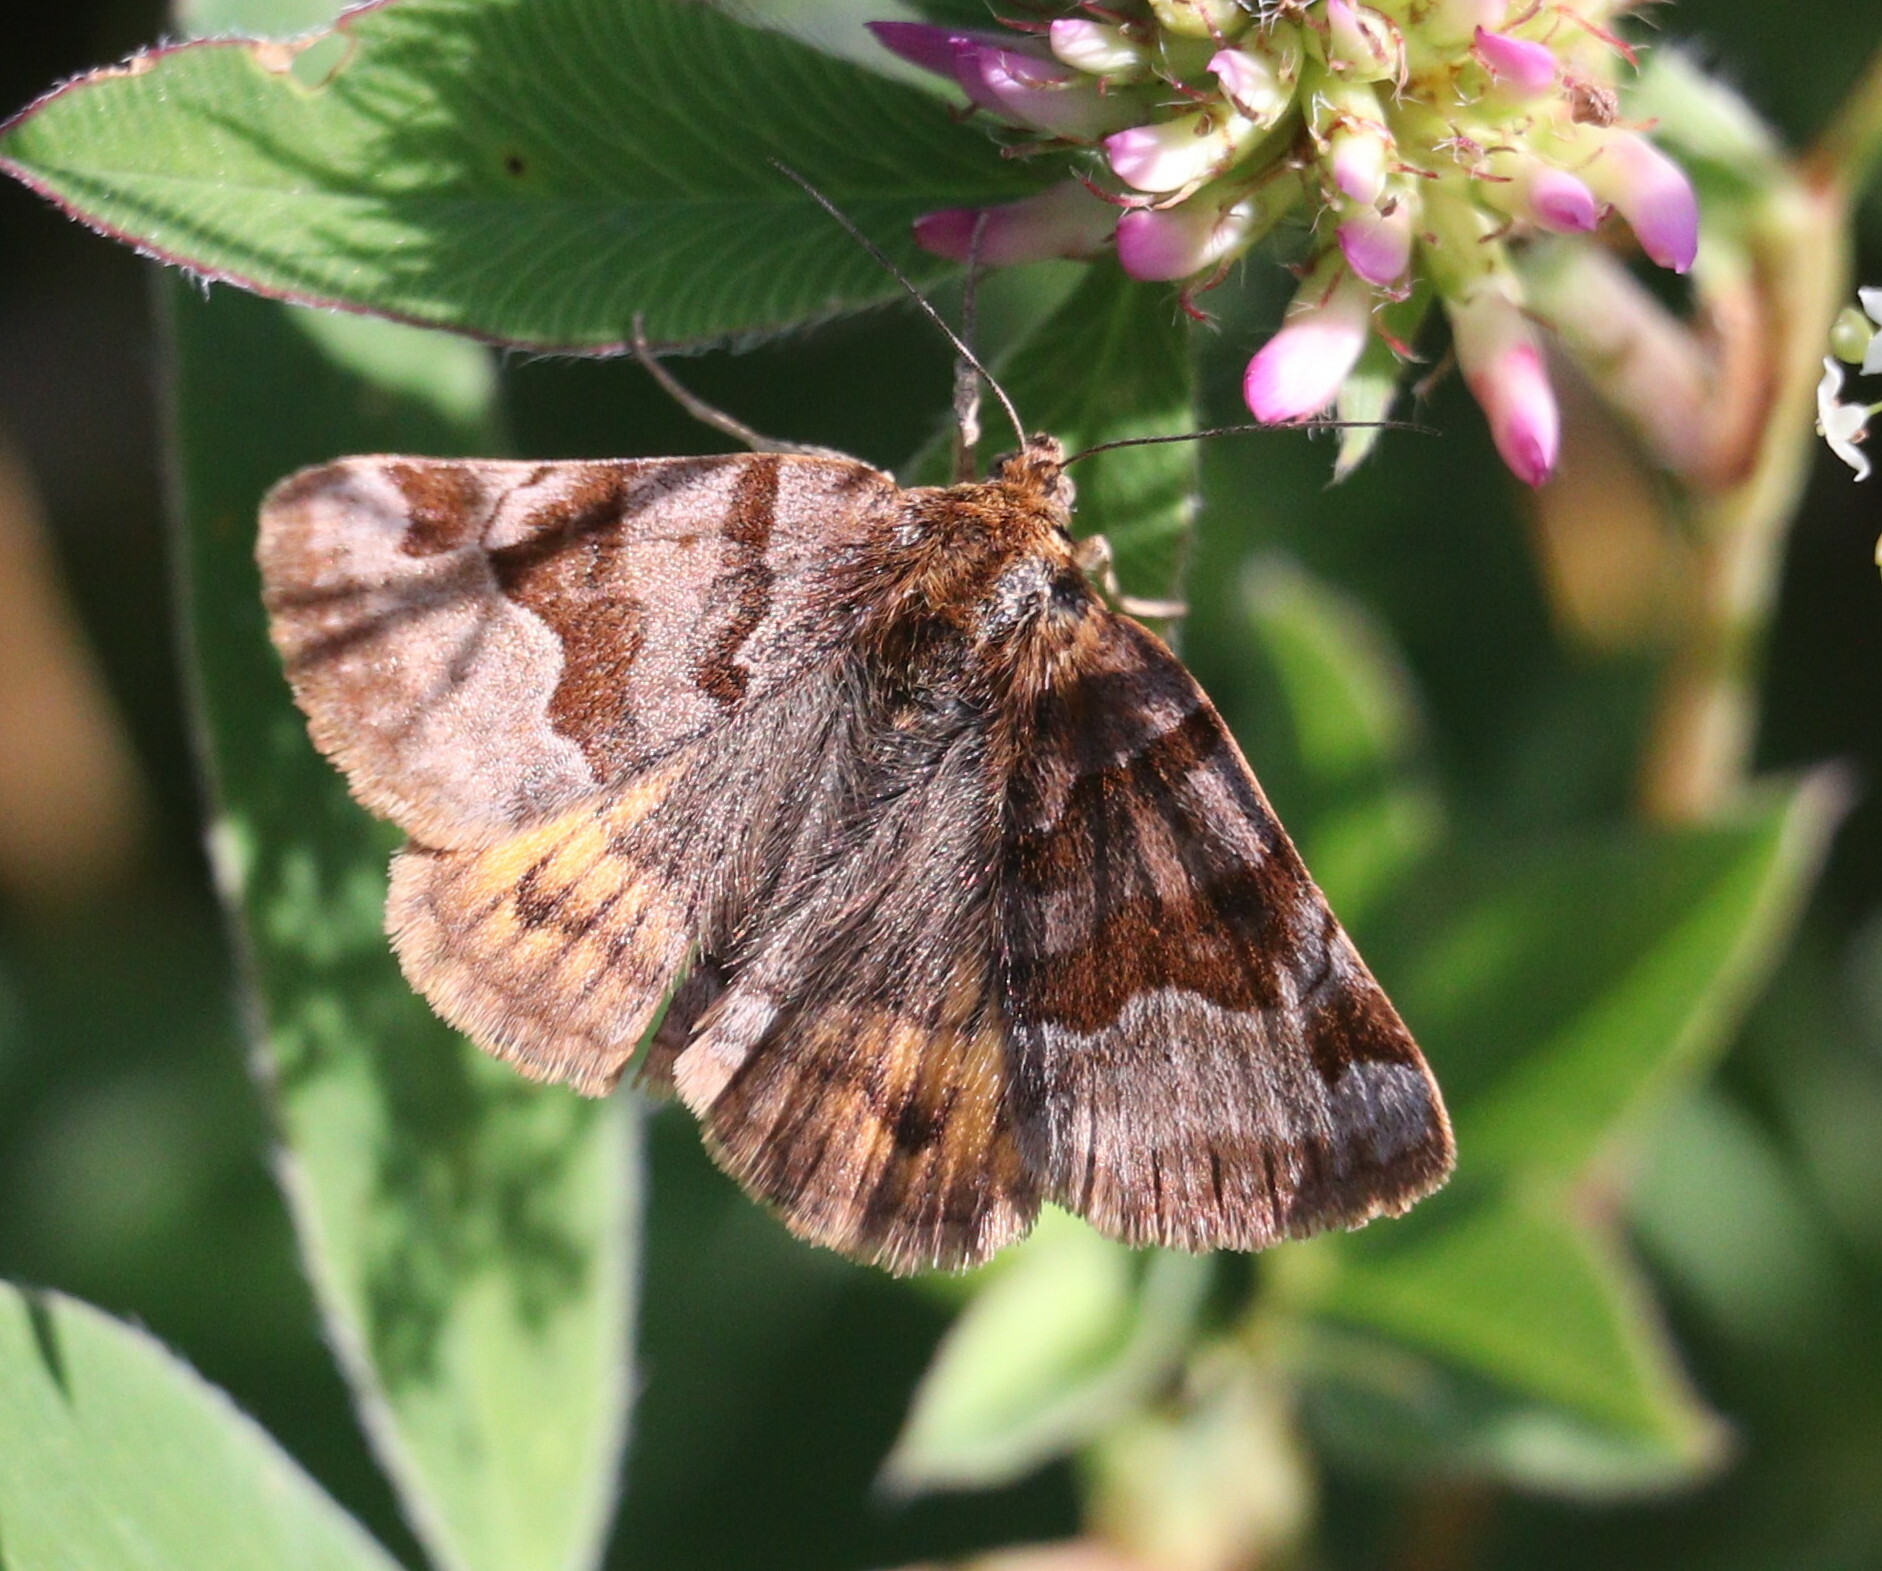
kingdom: Animalia
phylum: Arthropoda
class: Insecta
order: Lepidoptera
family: Erebidae
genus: Euclidia
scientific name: Euclidia glyphica
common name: Burnet companion
